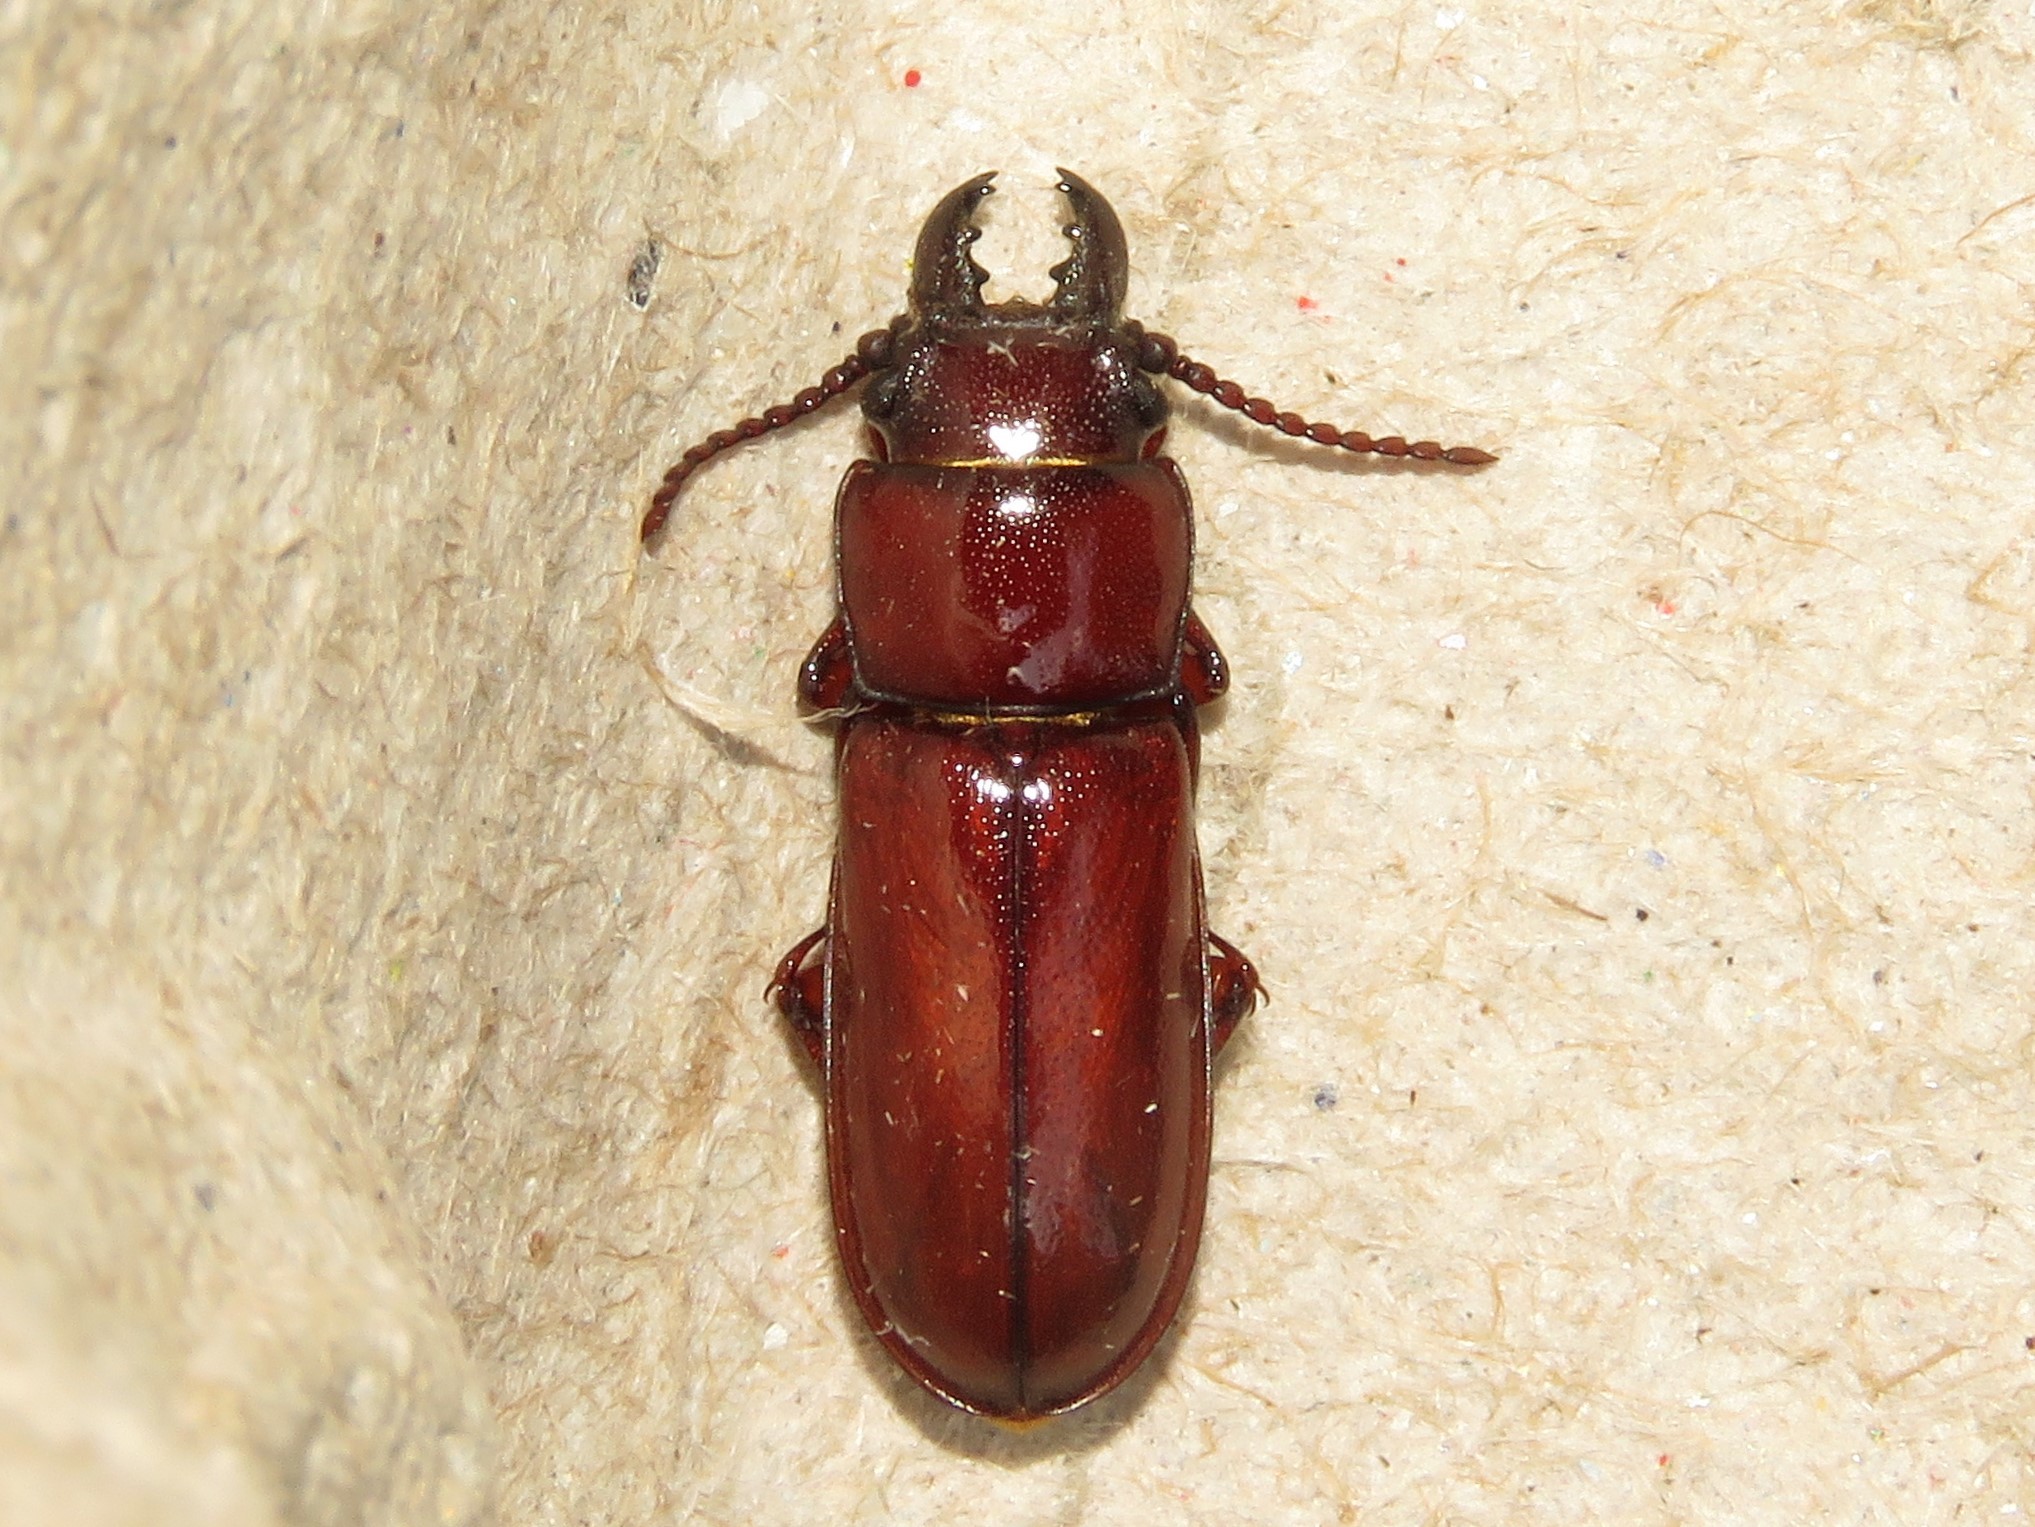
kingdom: Animalia
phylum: Arthropoda
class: Insecta
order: Coleoptera
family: Cerambycidae
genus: Neandra
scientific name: Neandra brunnea
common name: Pole borer
